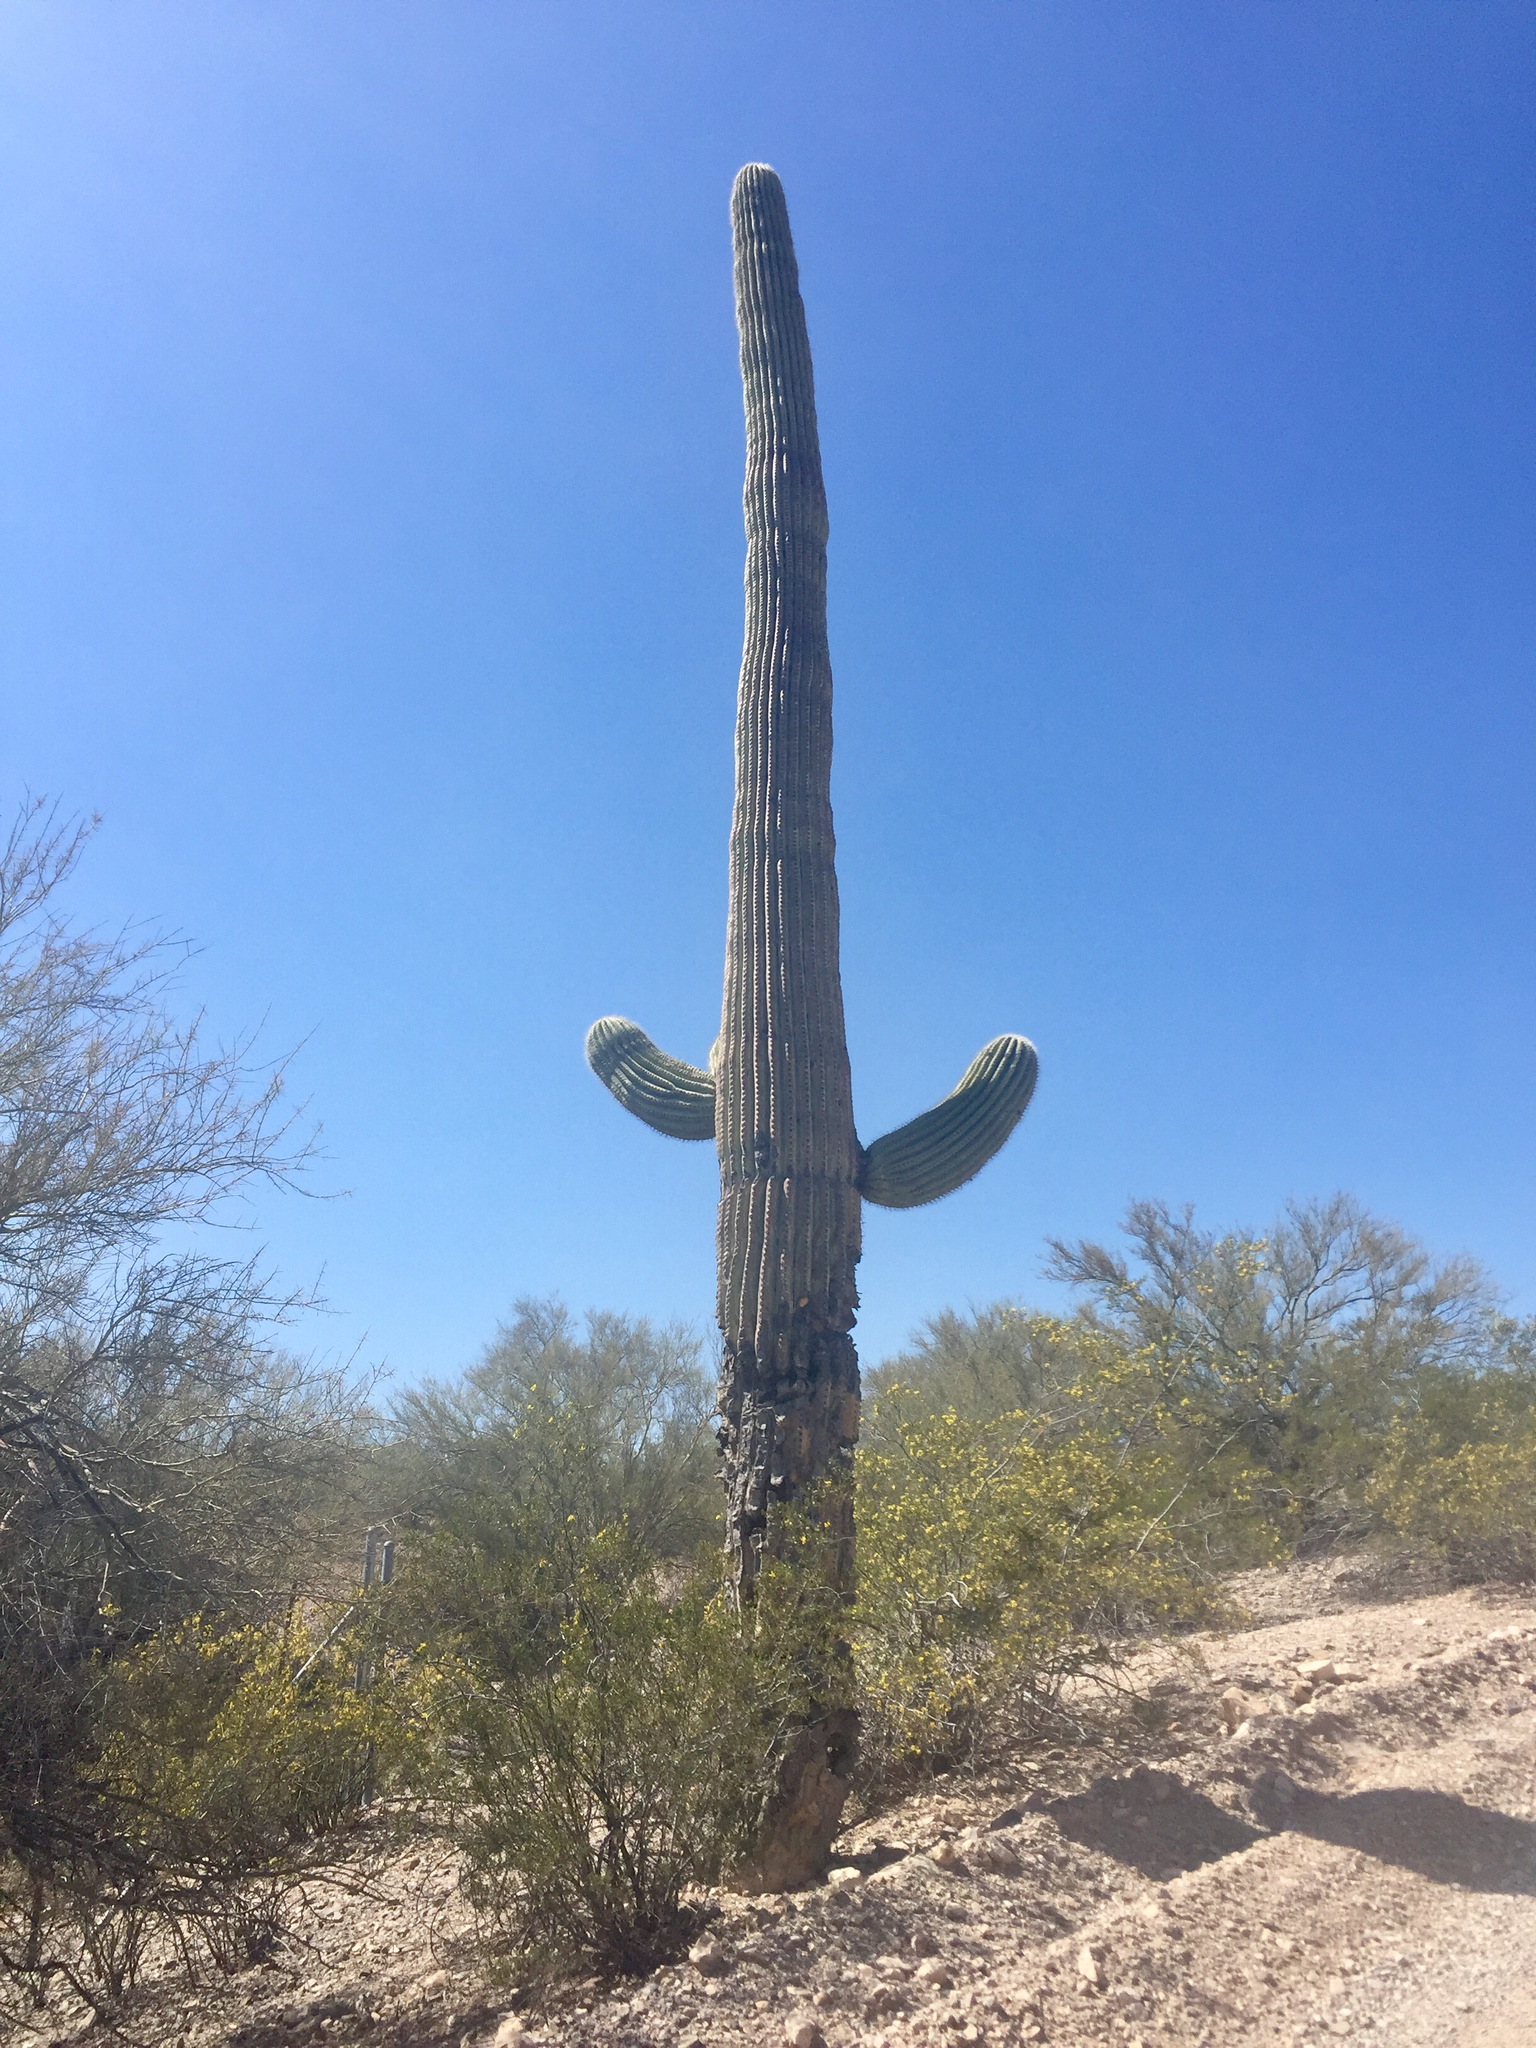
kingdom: Plantae
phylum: Tracheophyta
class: Magnoliopsida
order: Caryophyllales
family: Cactaceae
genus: Carnegiea
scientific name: Carnegiea gigantea
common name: Saguaro
